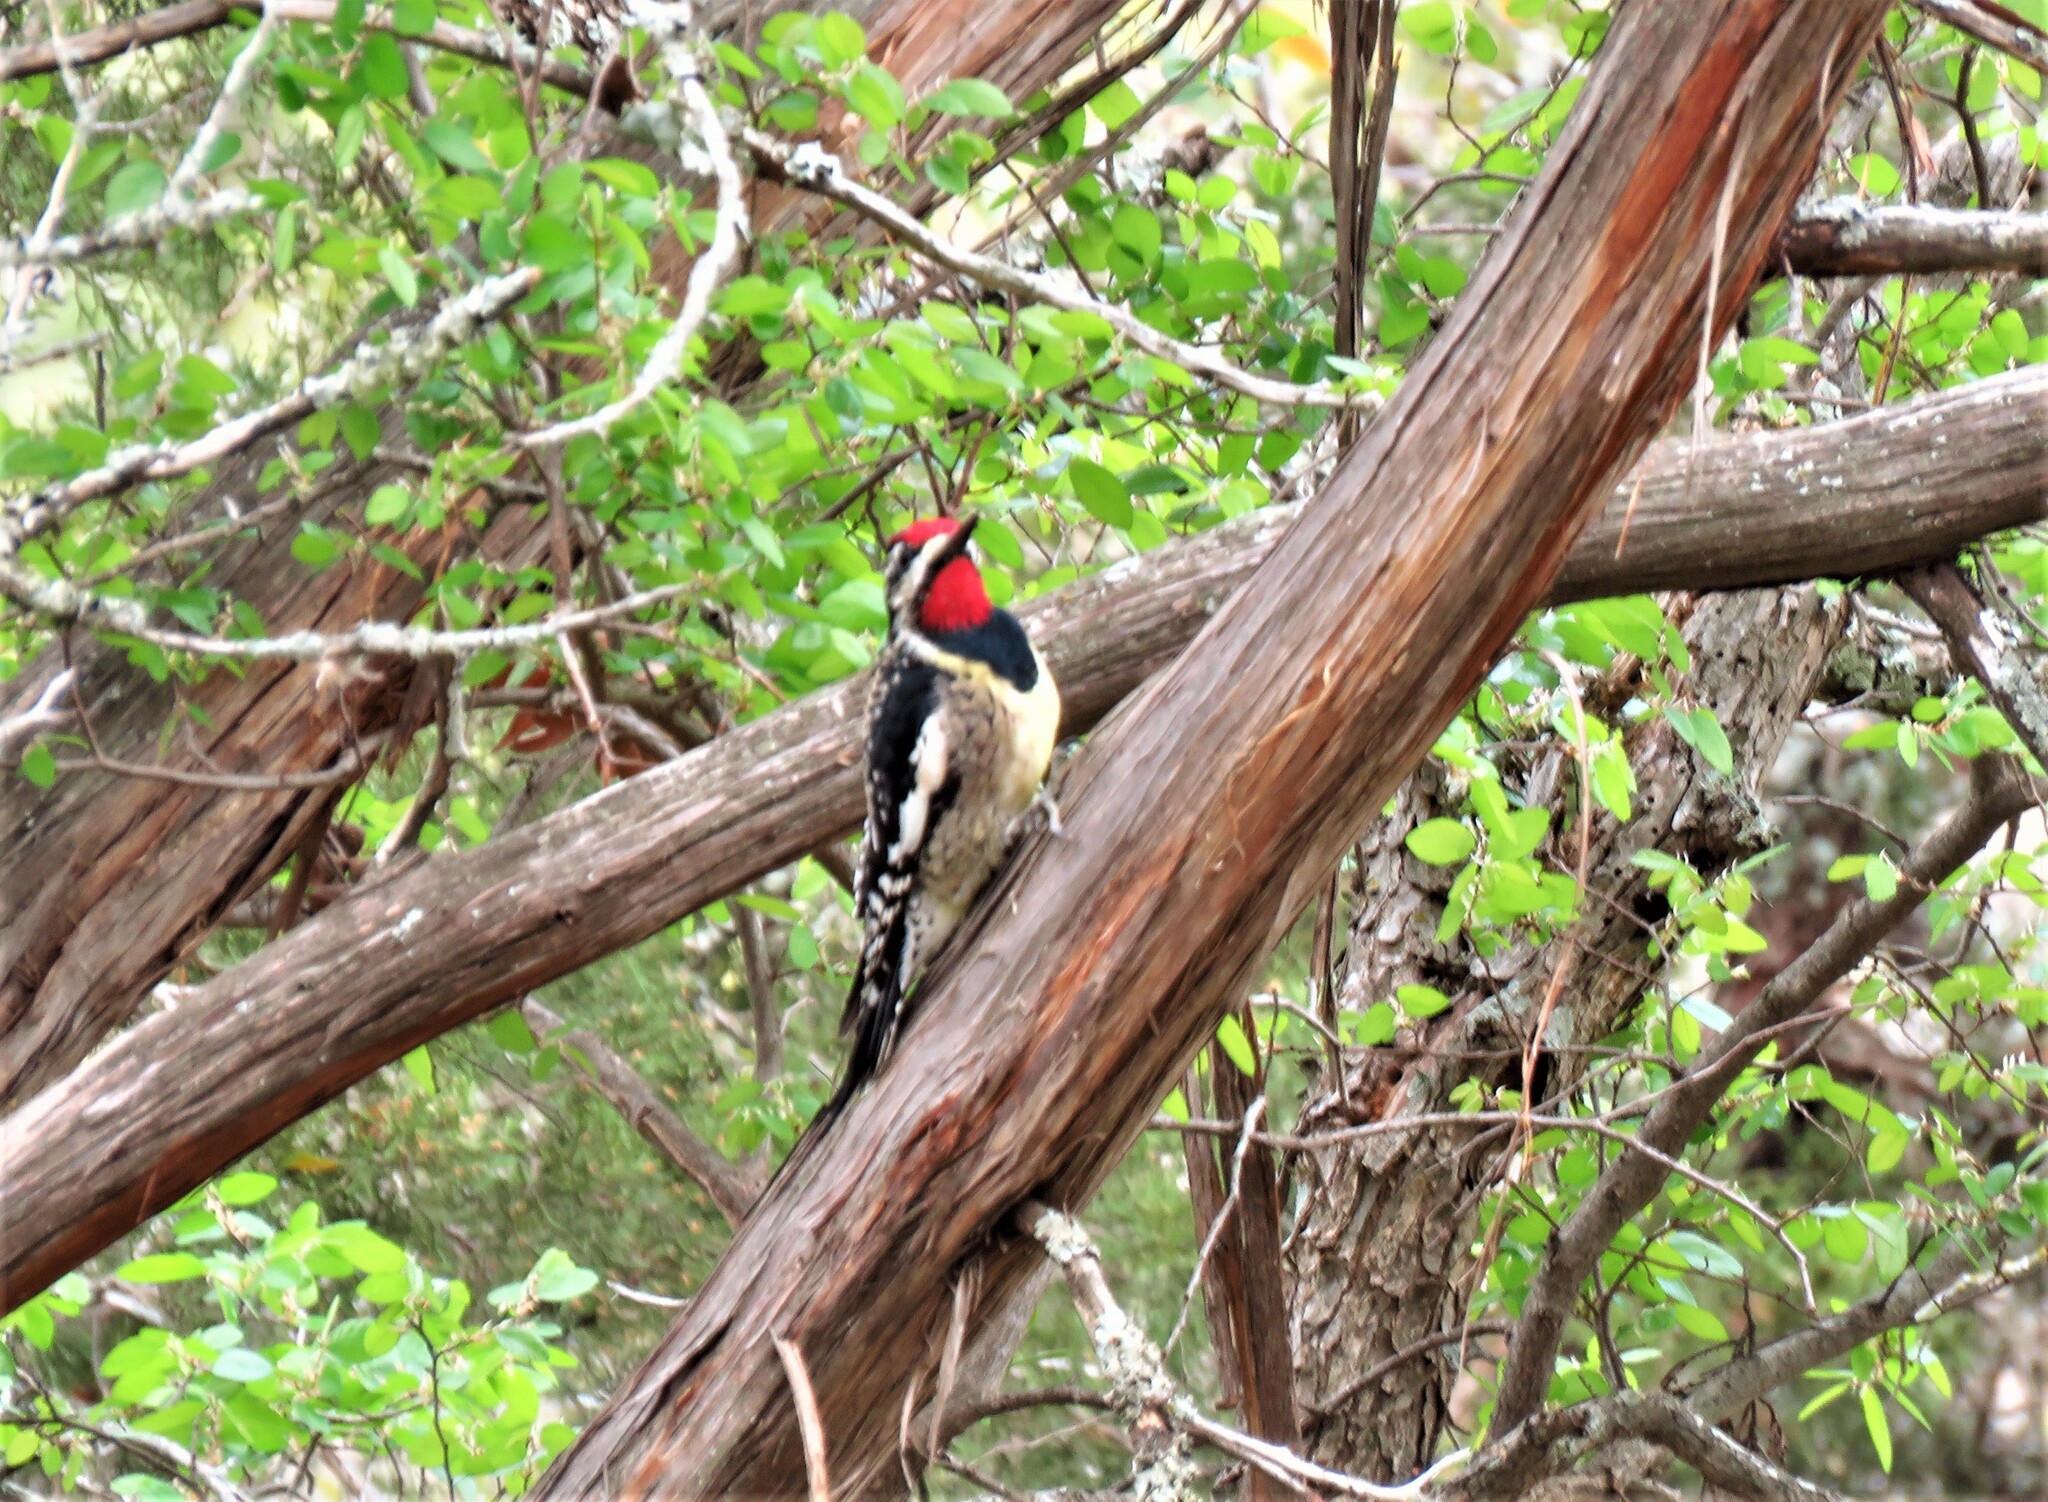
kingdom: Animalia
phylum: Chordata
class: Aves
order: Piciformes
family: Picidae
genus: Sphyrapicus
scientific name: Sphyrapicus varius
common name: Yellow-bellied sapsucker
